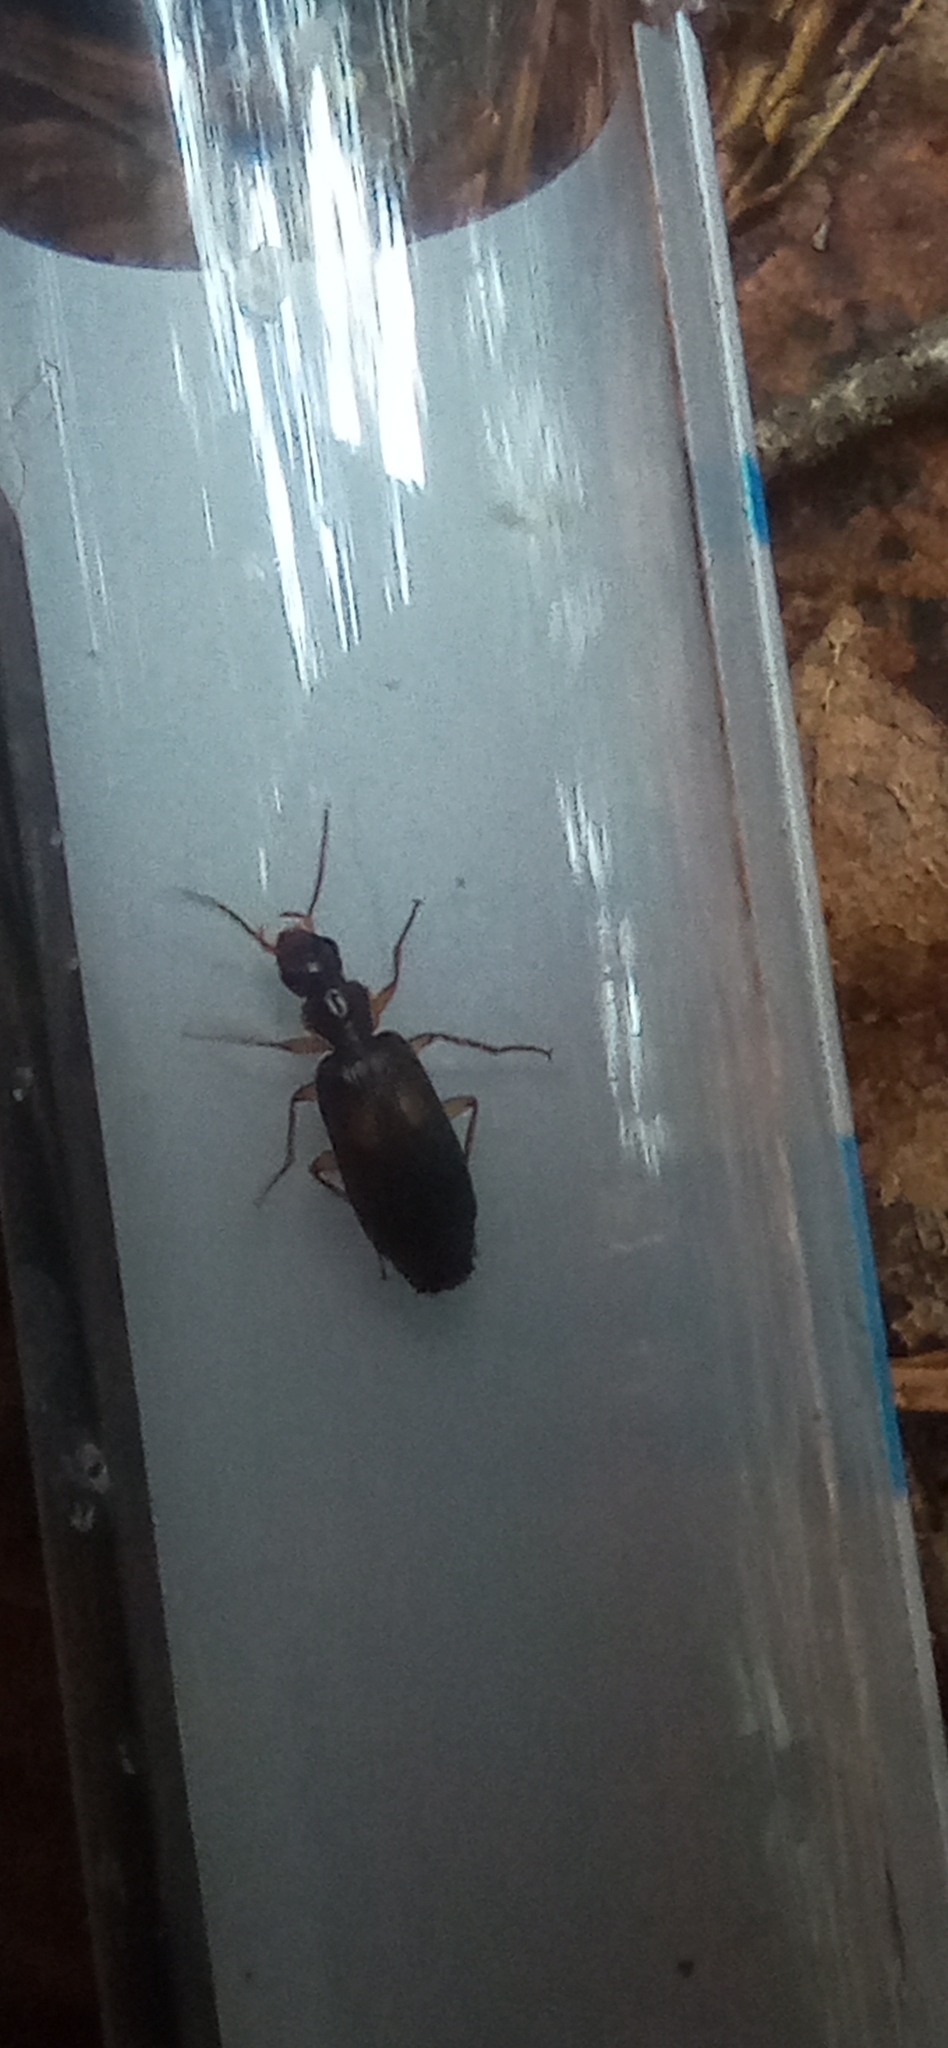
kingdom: Animalia
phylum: Arthropoda
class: Insecta
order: Coleoptera
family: Carabidae
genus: Dromius
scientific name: Dromius fenestratus
